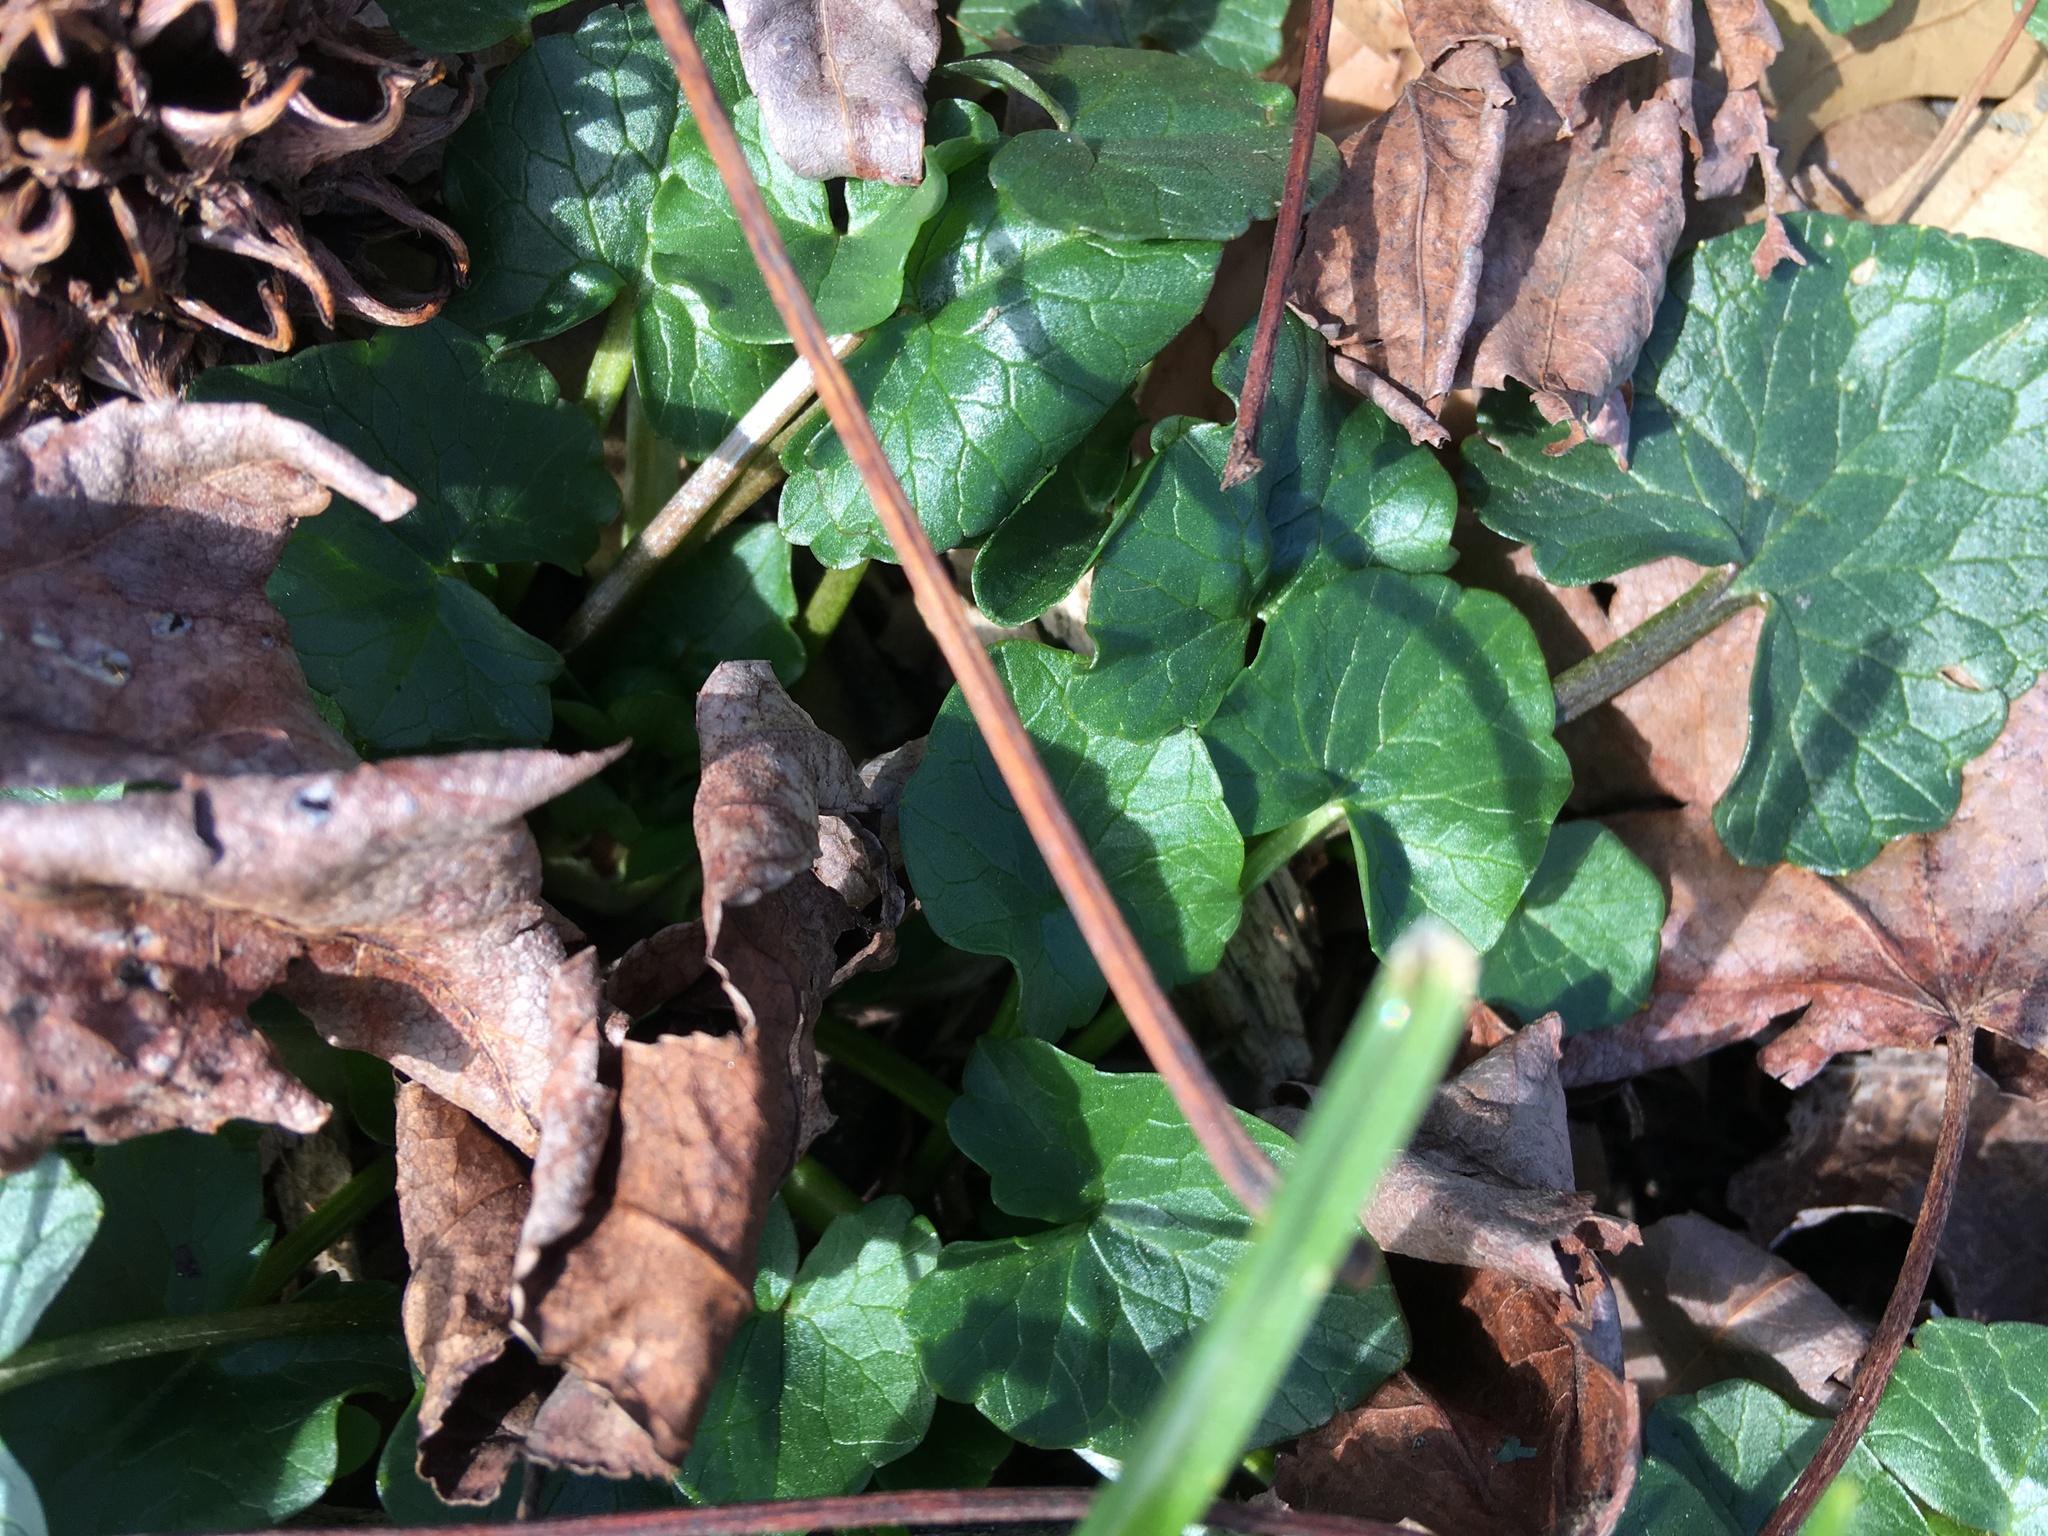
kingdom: Plantae
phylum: Tracheophyta
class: Magnoliopsida
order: Ranunculales
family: Ranunculaceae
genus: Ficaria
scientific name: Ficaria verna
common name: Lesser celandine
